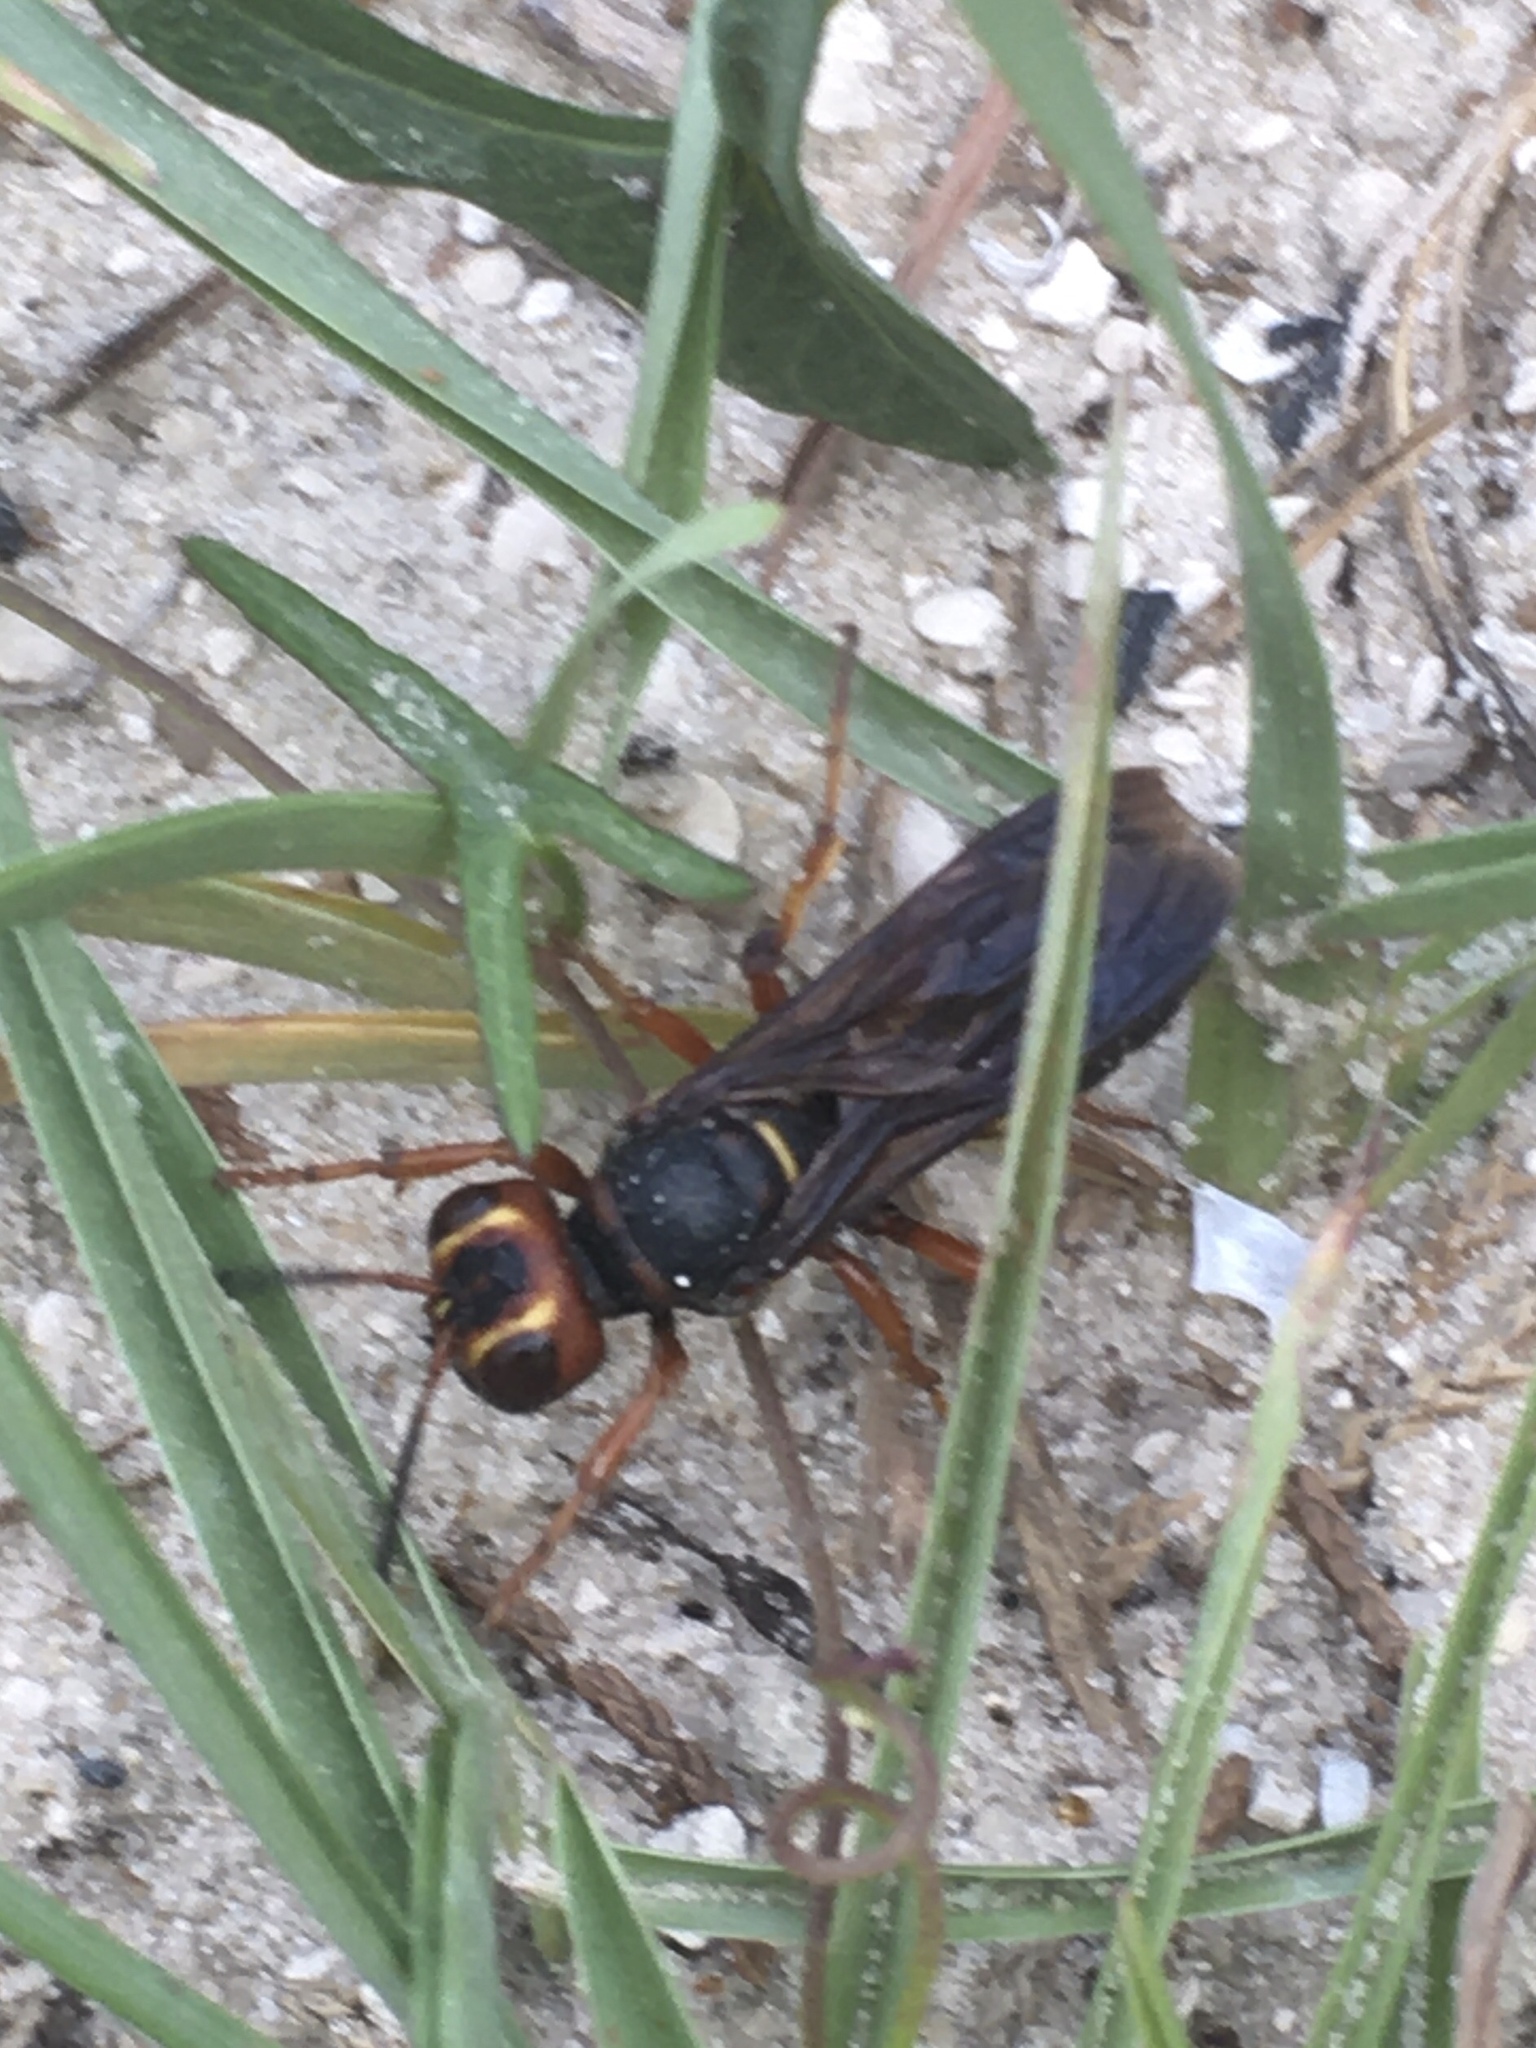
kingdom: Animalia
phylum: Arthropoda
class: Insecta
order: Hymenoptera
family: Crabronidae
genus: Cerceris
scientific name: Cerceris bicornuta
